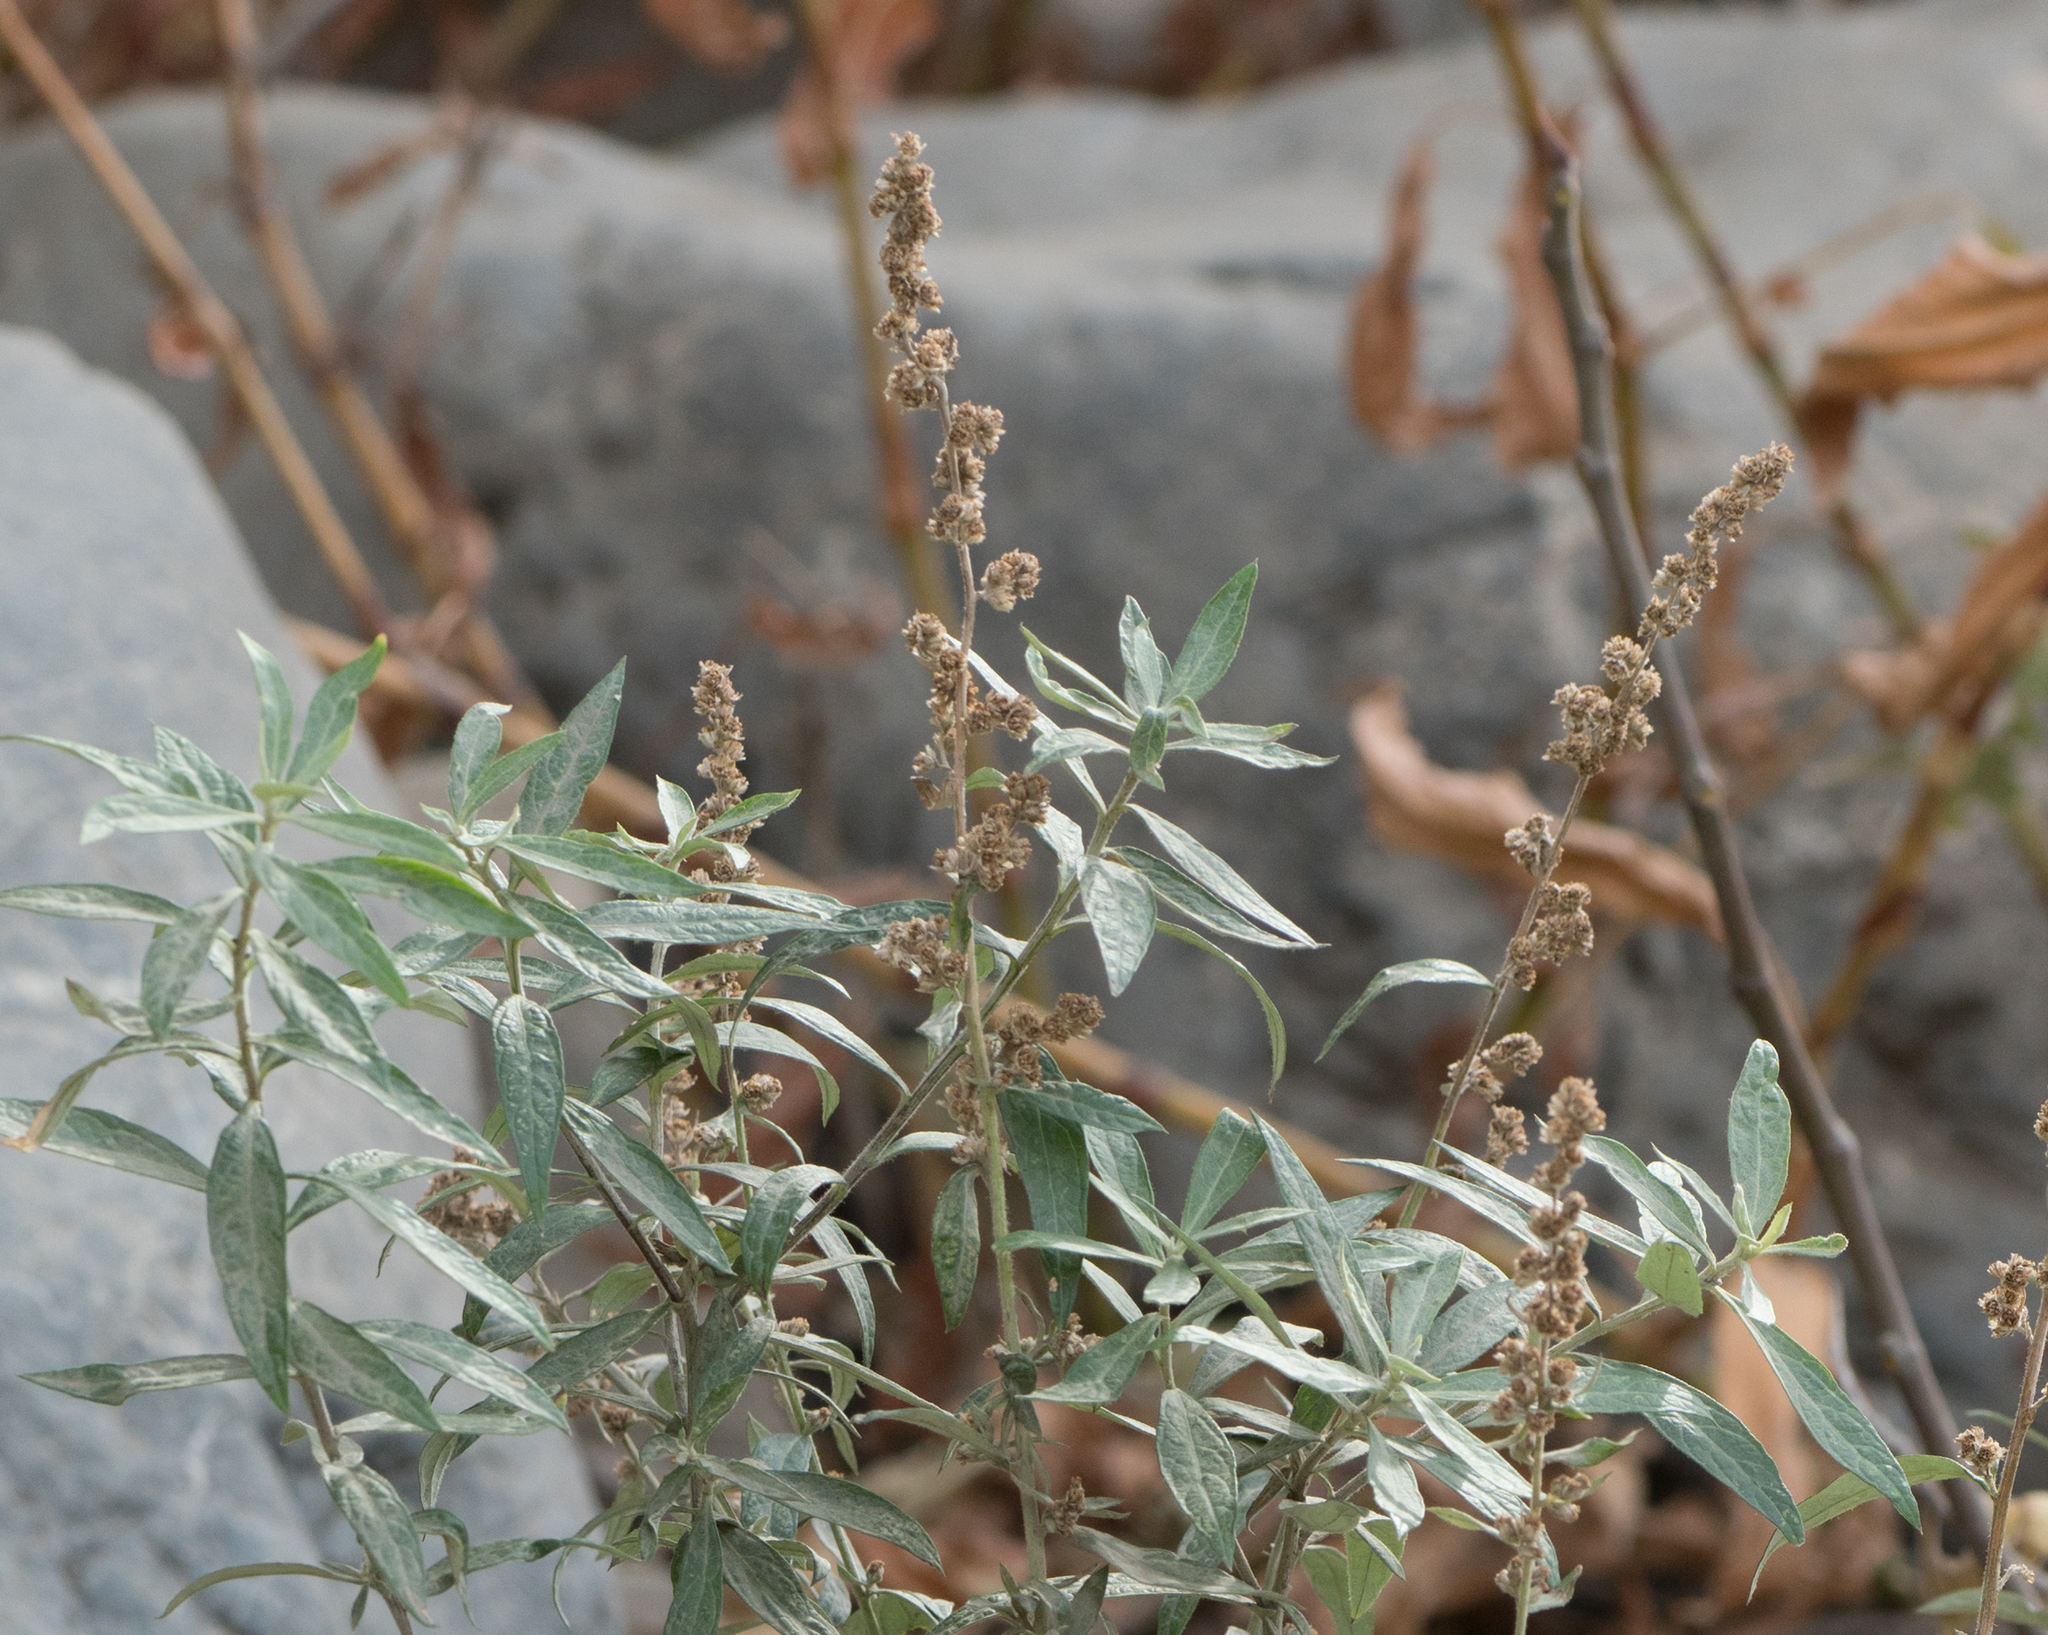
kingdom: Plantae
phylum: Tracheophyta
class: Magnoliopsida
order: Asterales
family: Asteraceae
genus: Artemisia
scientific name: Artemisia douglasiana
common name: Northwest mugwort
